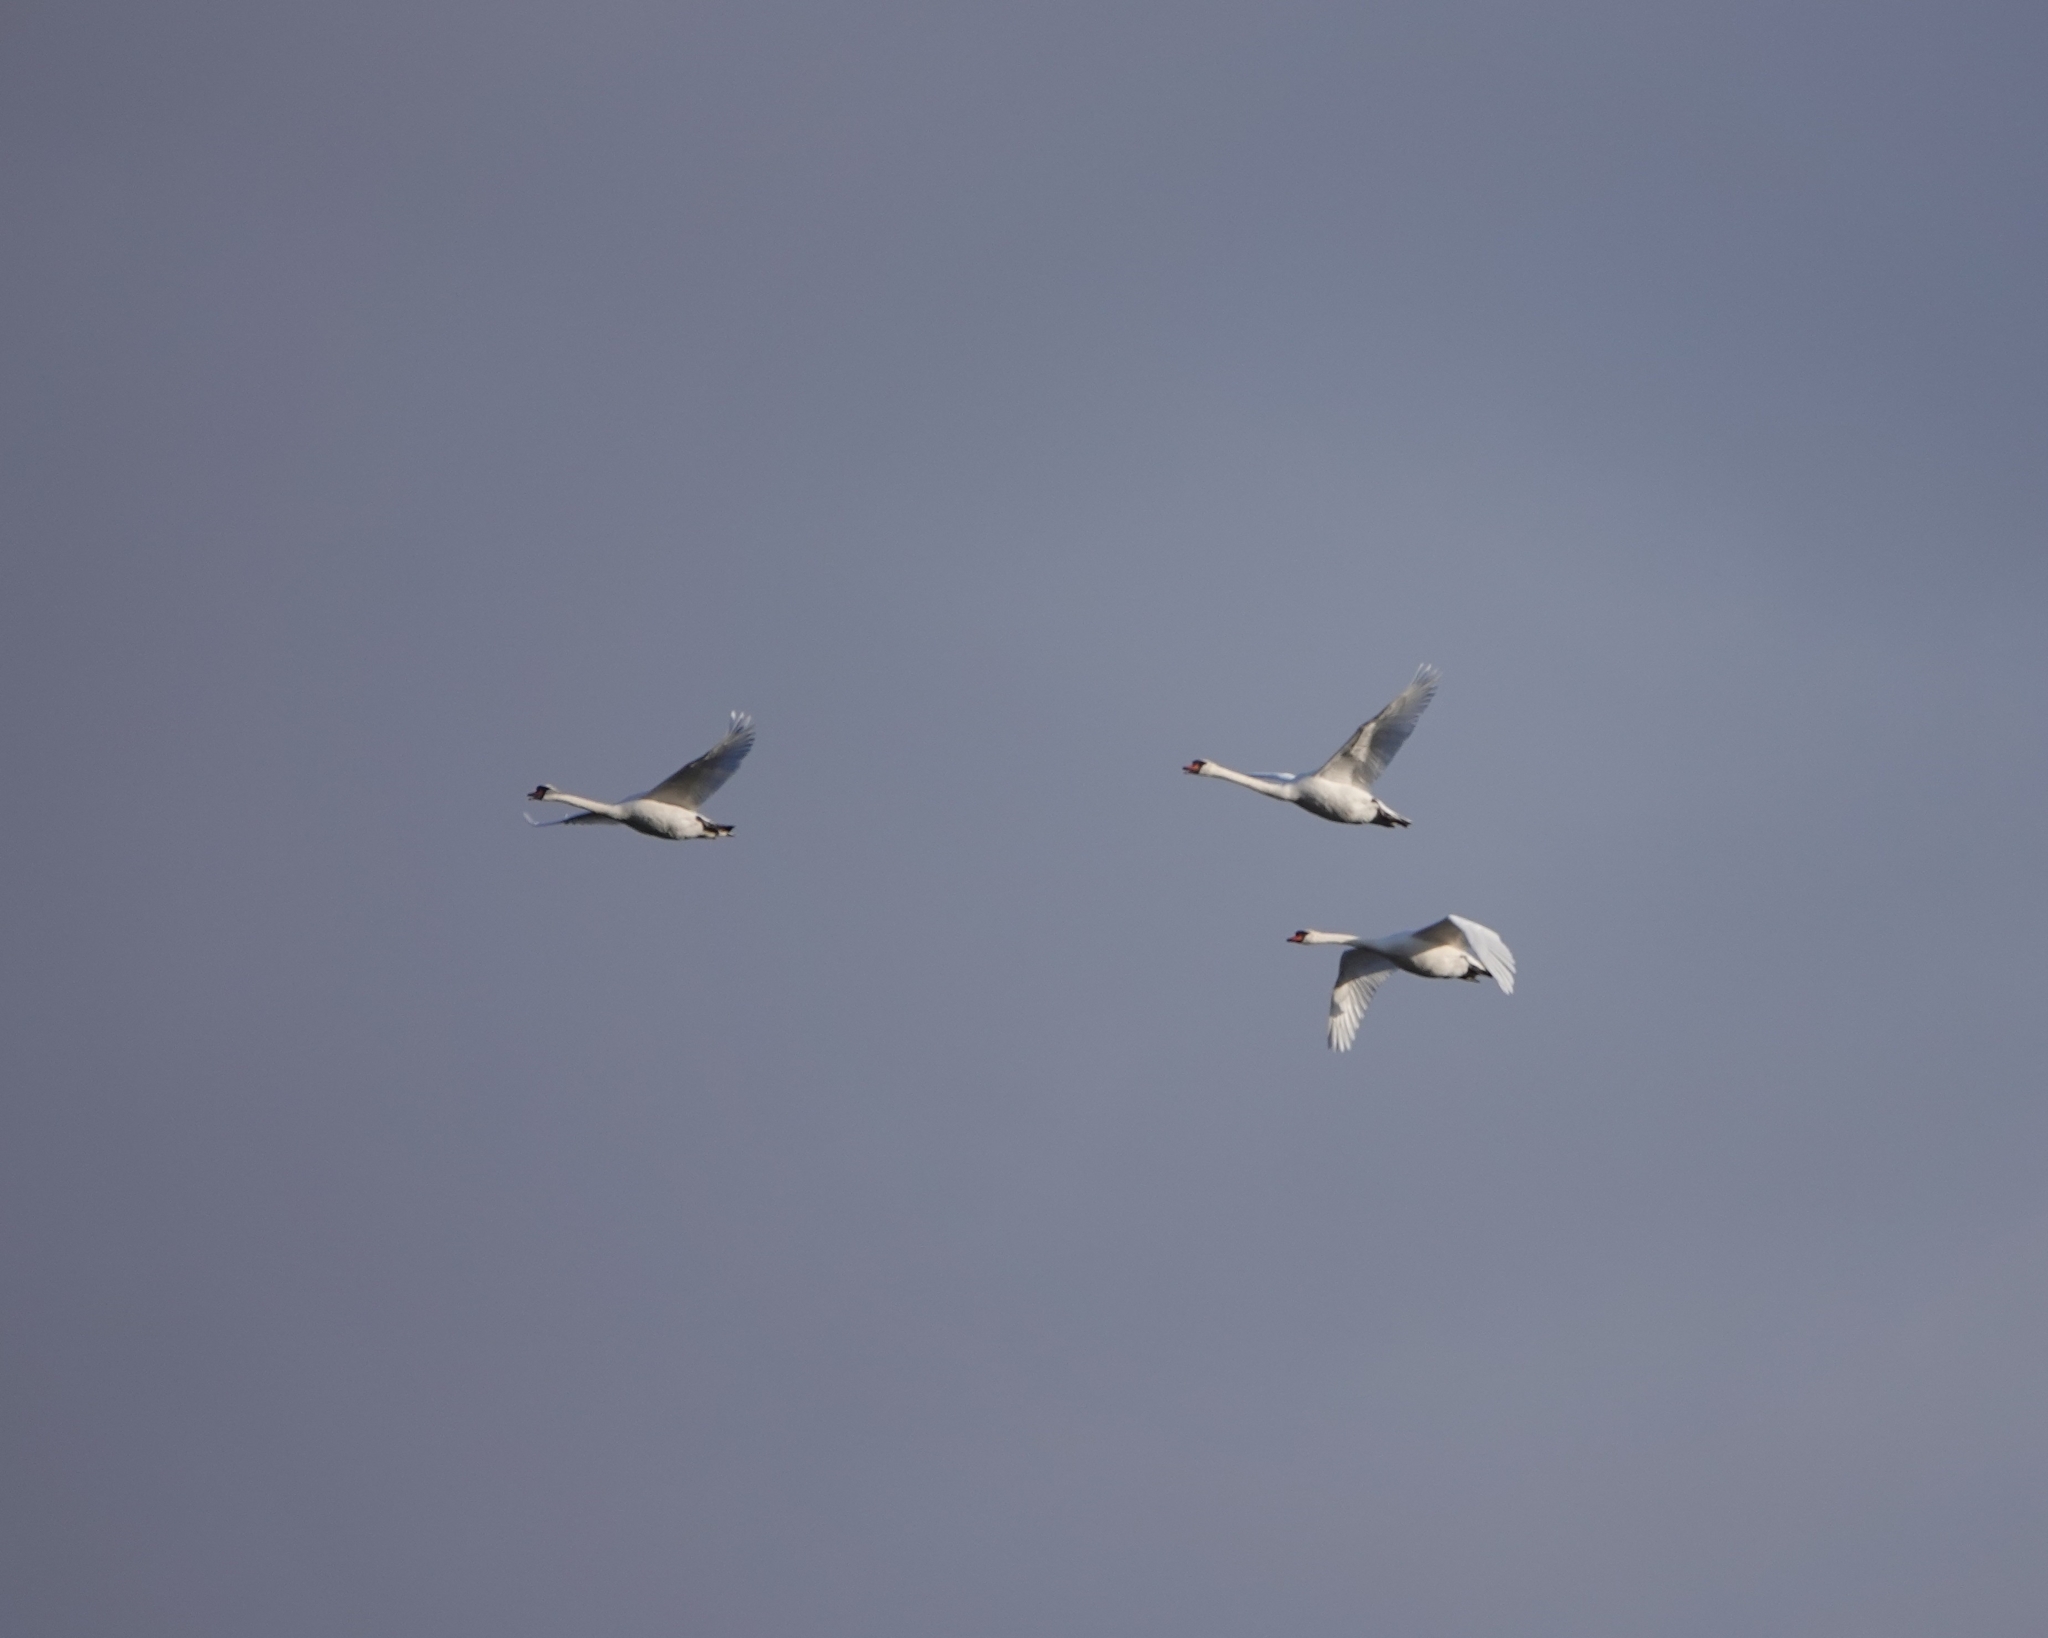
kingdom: Animalia
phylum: Chordata
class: Aves
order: Anseriformes
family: Anatidae
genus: Cygnus
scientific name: Cygnus olor
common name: Mute swan
